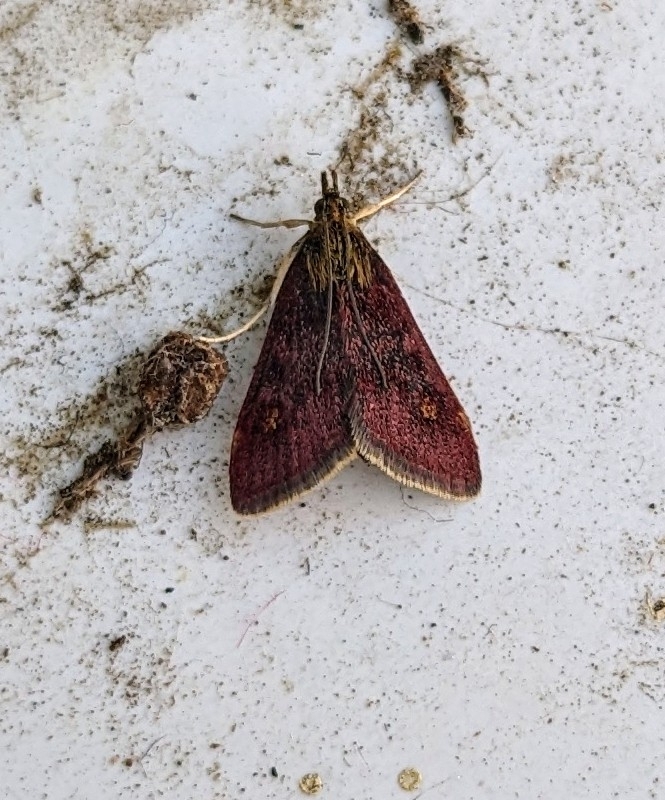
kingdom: Animalia
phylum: Arthropoda
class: Insecta
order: Lepidoptera
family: Crambidae
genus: Pyrausta
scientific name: Pyrausta aurata
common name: Small purple & gold
